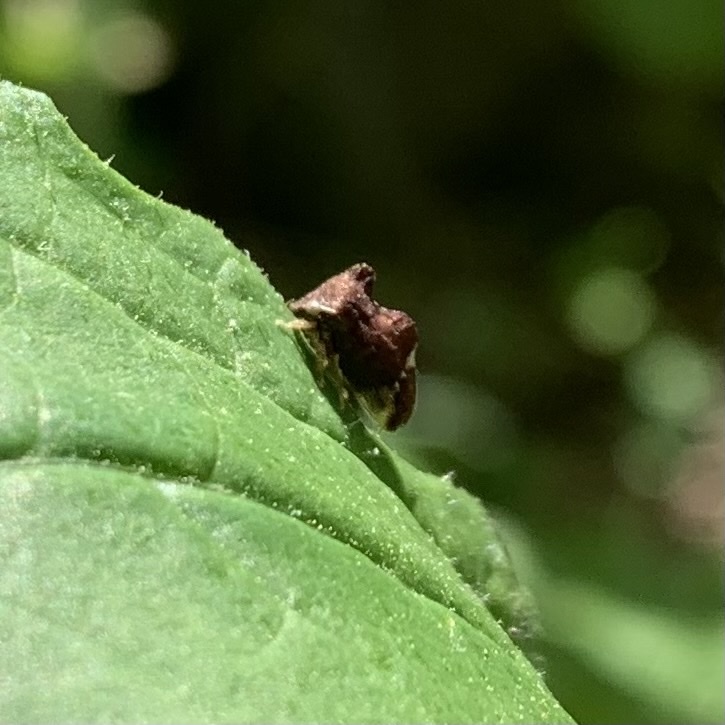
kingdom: Animalia
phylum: Arthropoda
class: Insecta
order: Hemiptera
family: Membracidae
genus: Entylia
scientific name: Entylia carinata
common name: Keeled treehopper
